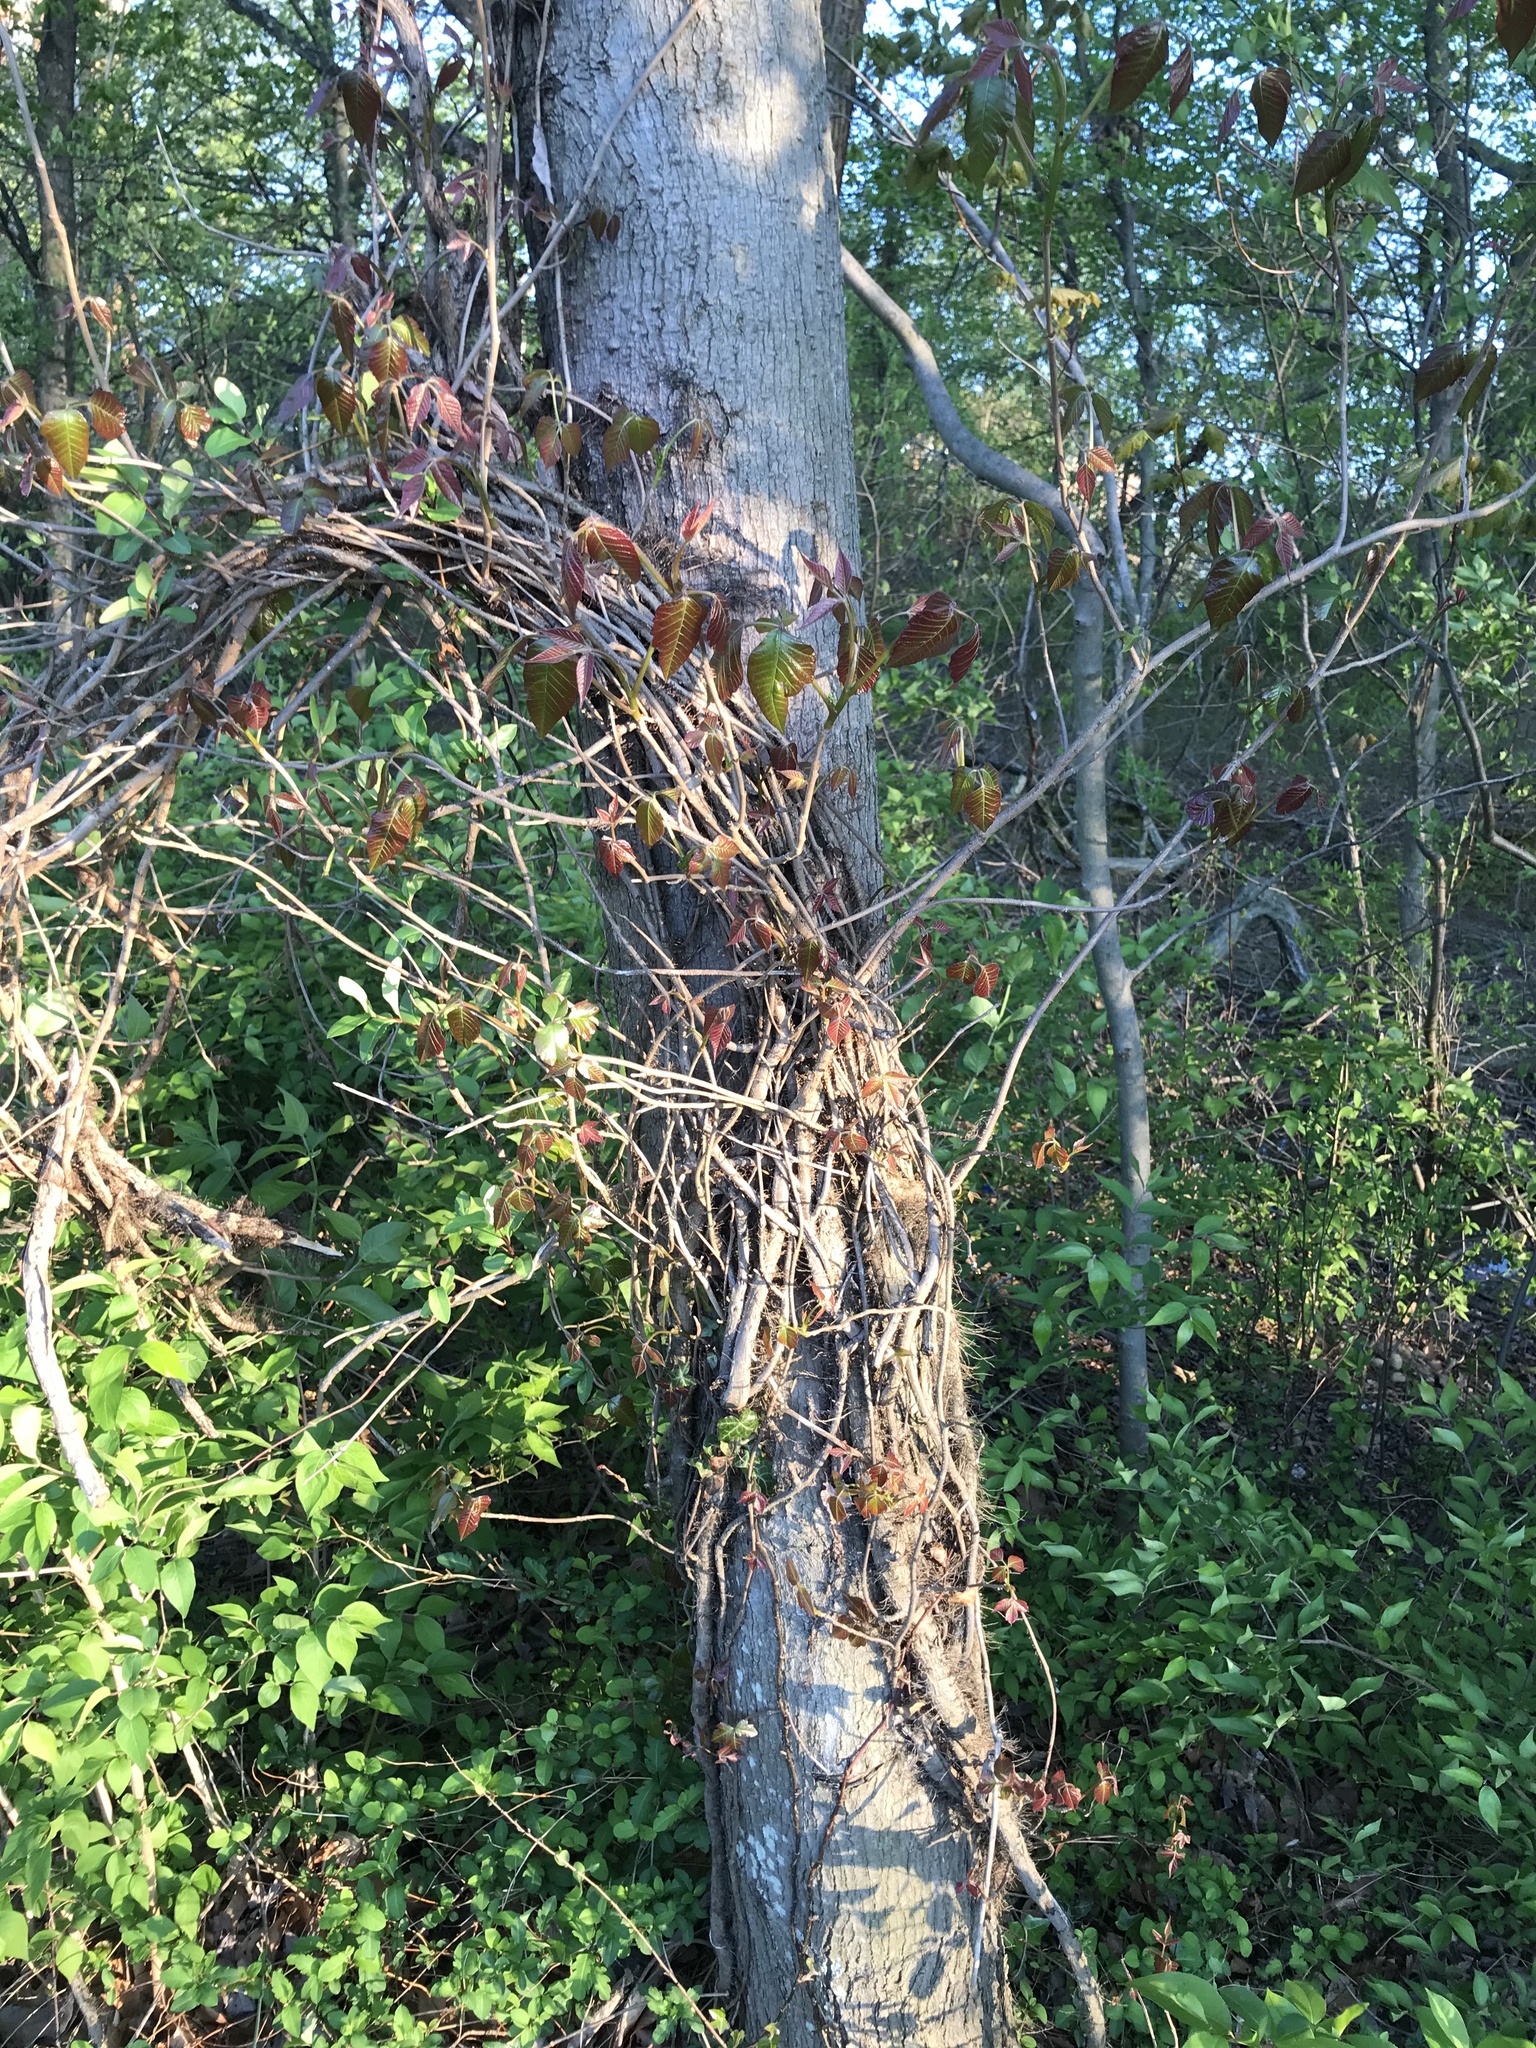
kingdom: Plantae
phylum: Tracheophyta
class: Magnoliopsida
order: Sapindales
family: Anacardiaceae
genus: Toxicodendron
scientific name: Toxicodendron radicans
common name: Poison ivy
